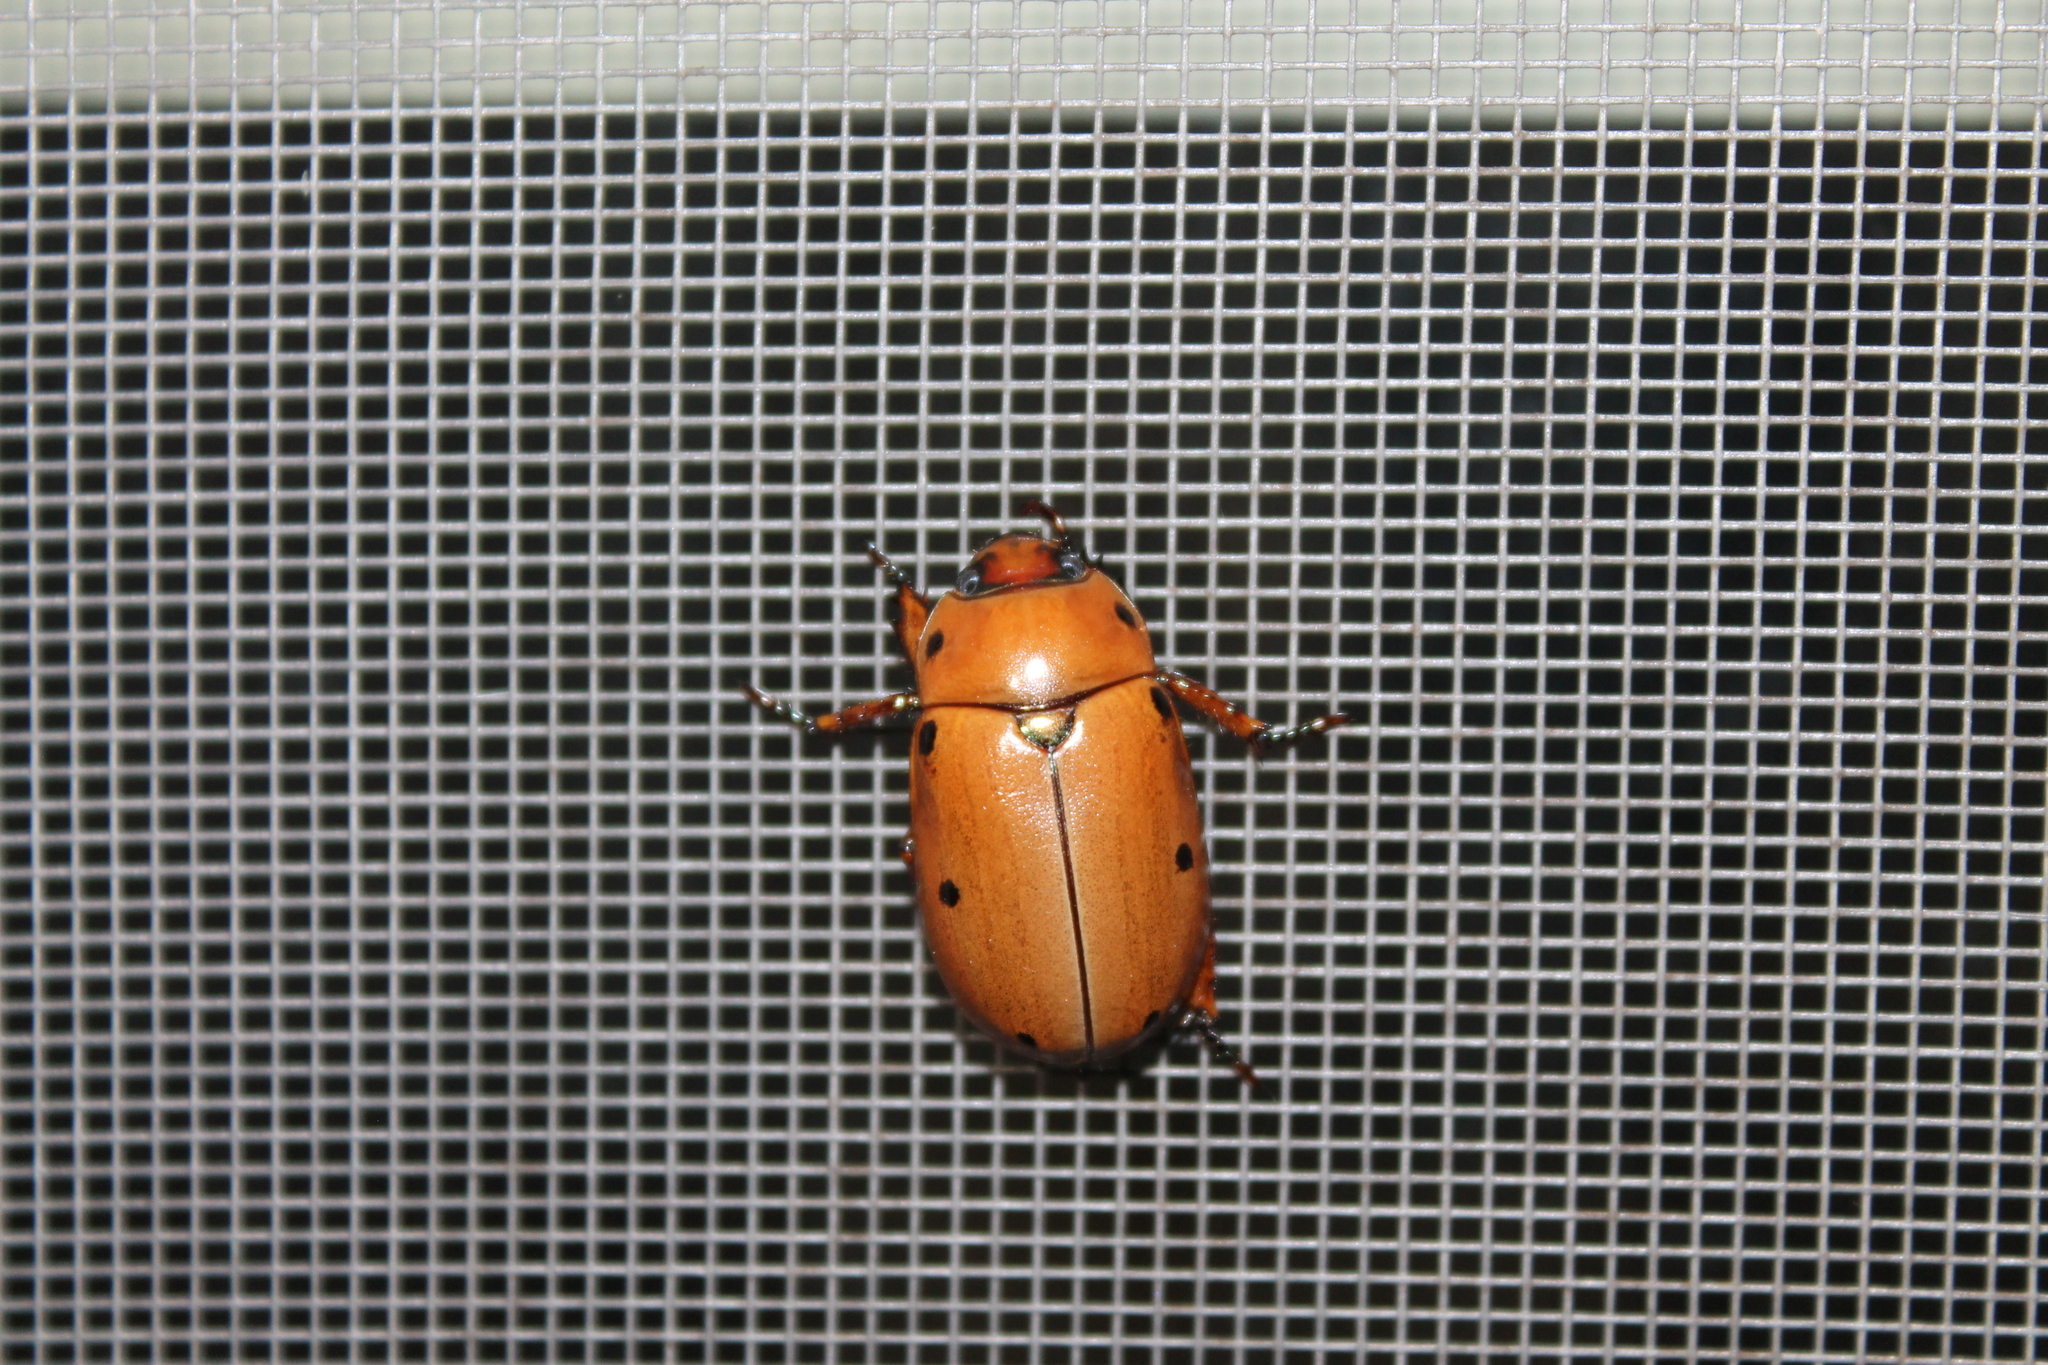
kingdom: Animalia
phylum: Arthropoda
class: Insecta
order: Coleoptera
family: Scarabaeidae
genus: Pelidnota
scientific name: Pelidnota punctata
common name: Grapevine beetle
